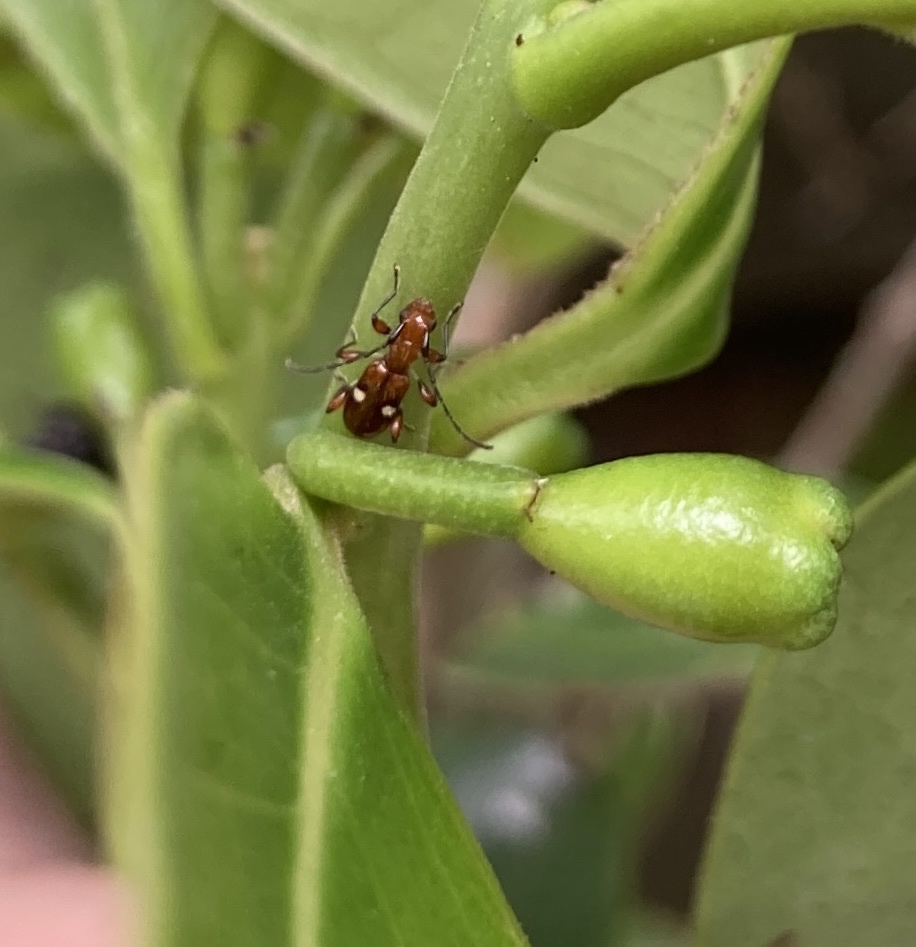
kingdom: Animalia
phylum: Arthropoda
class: Insecta
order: Coleoptera
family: Cerambycidae
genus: Zorion
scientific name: Zorion batesi
